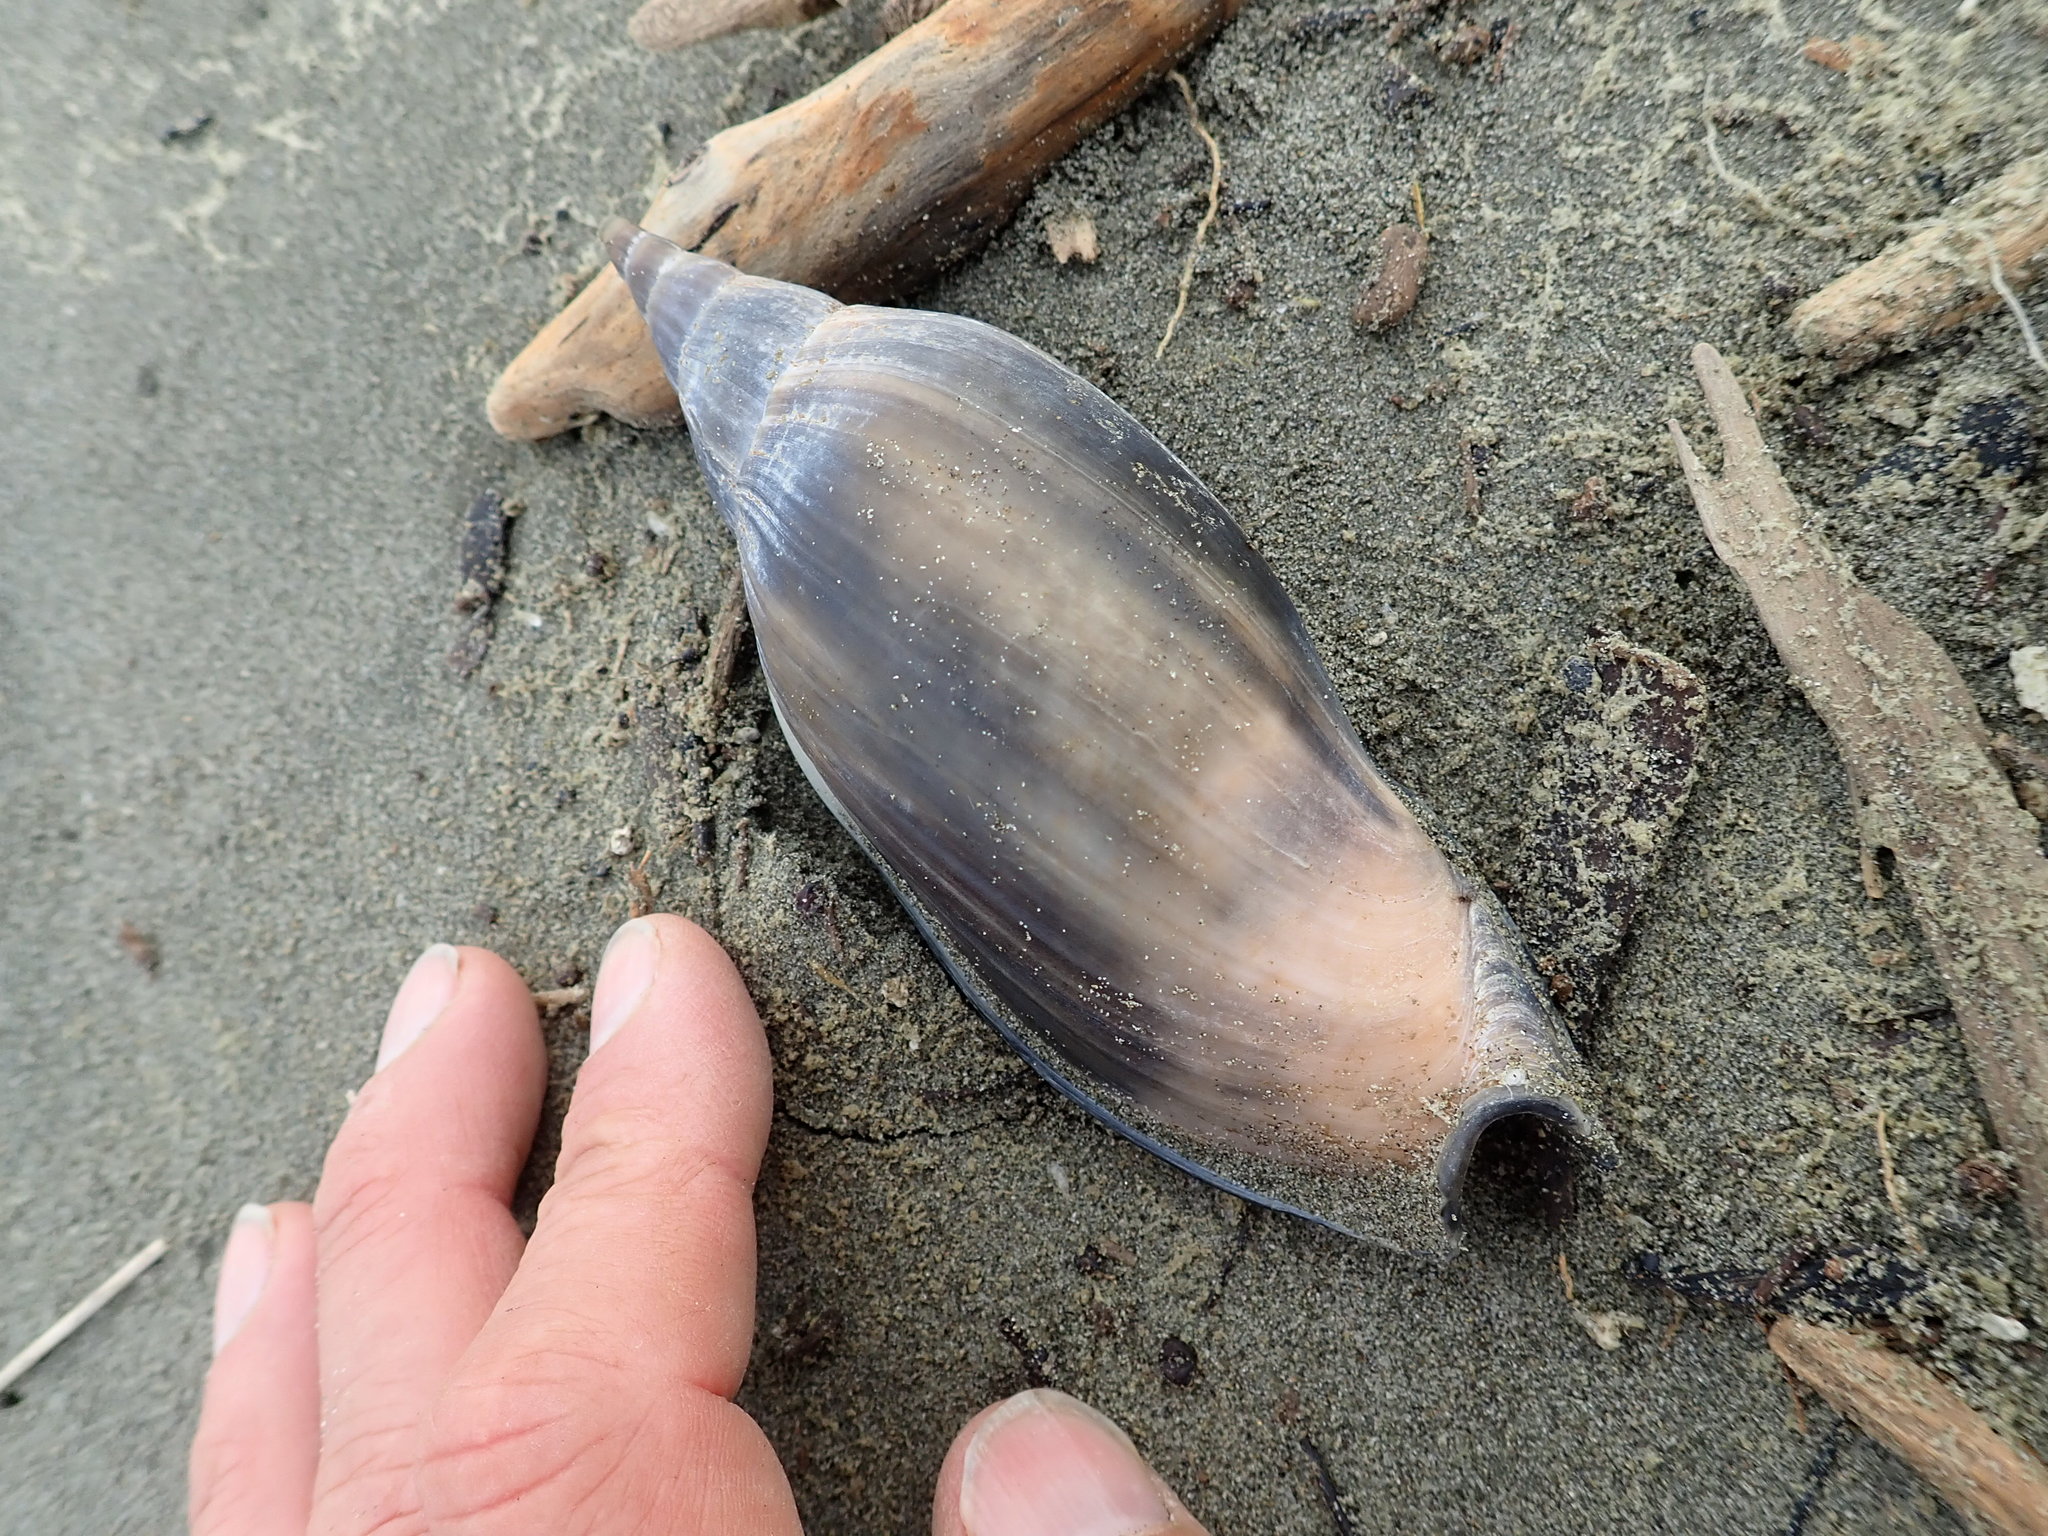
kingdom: Animalia
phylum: Mollusca
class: Gastropoda
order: Neogastropoda
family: Volutidae
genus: Alcithoe
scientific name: Alcithoe arabica
